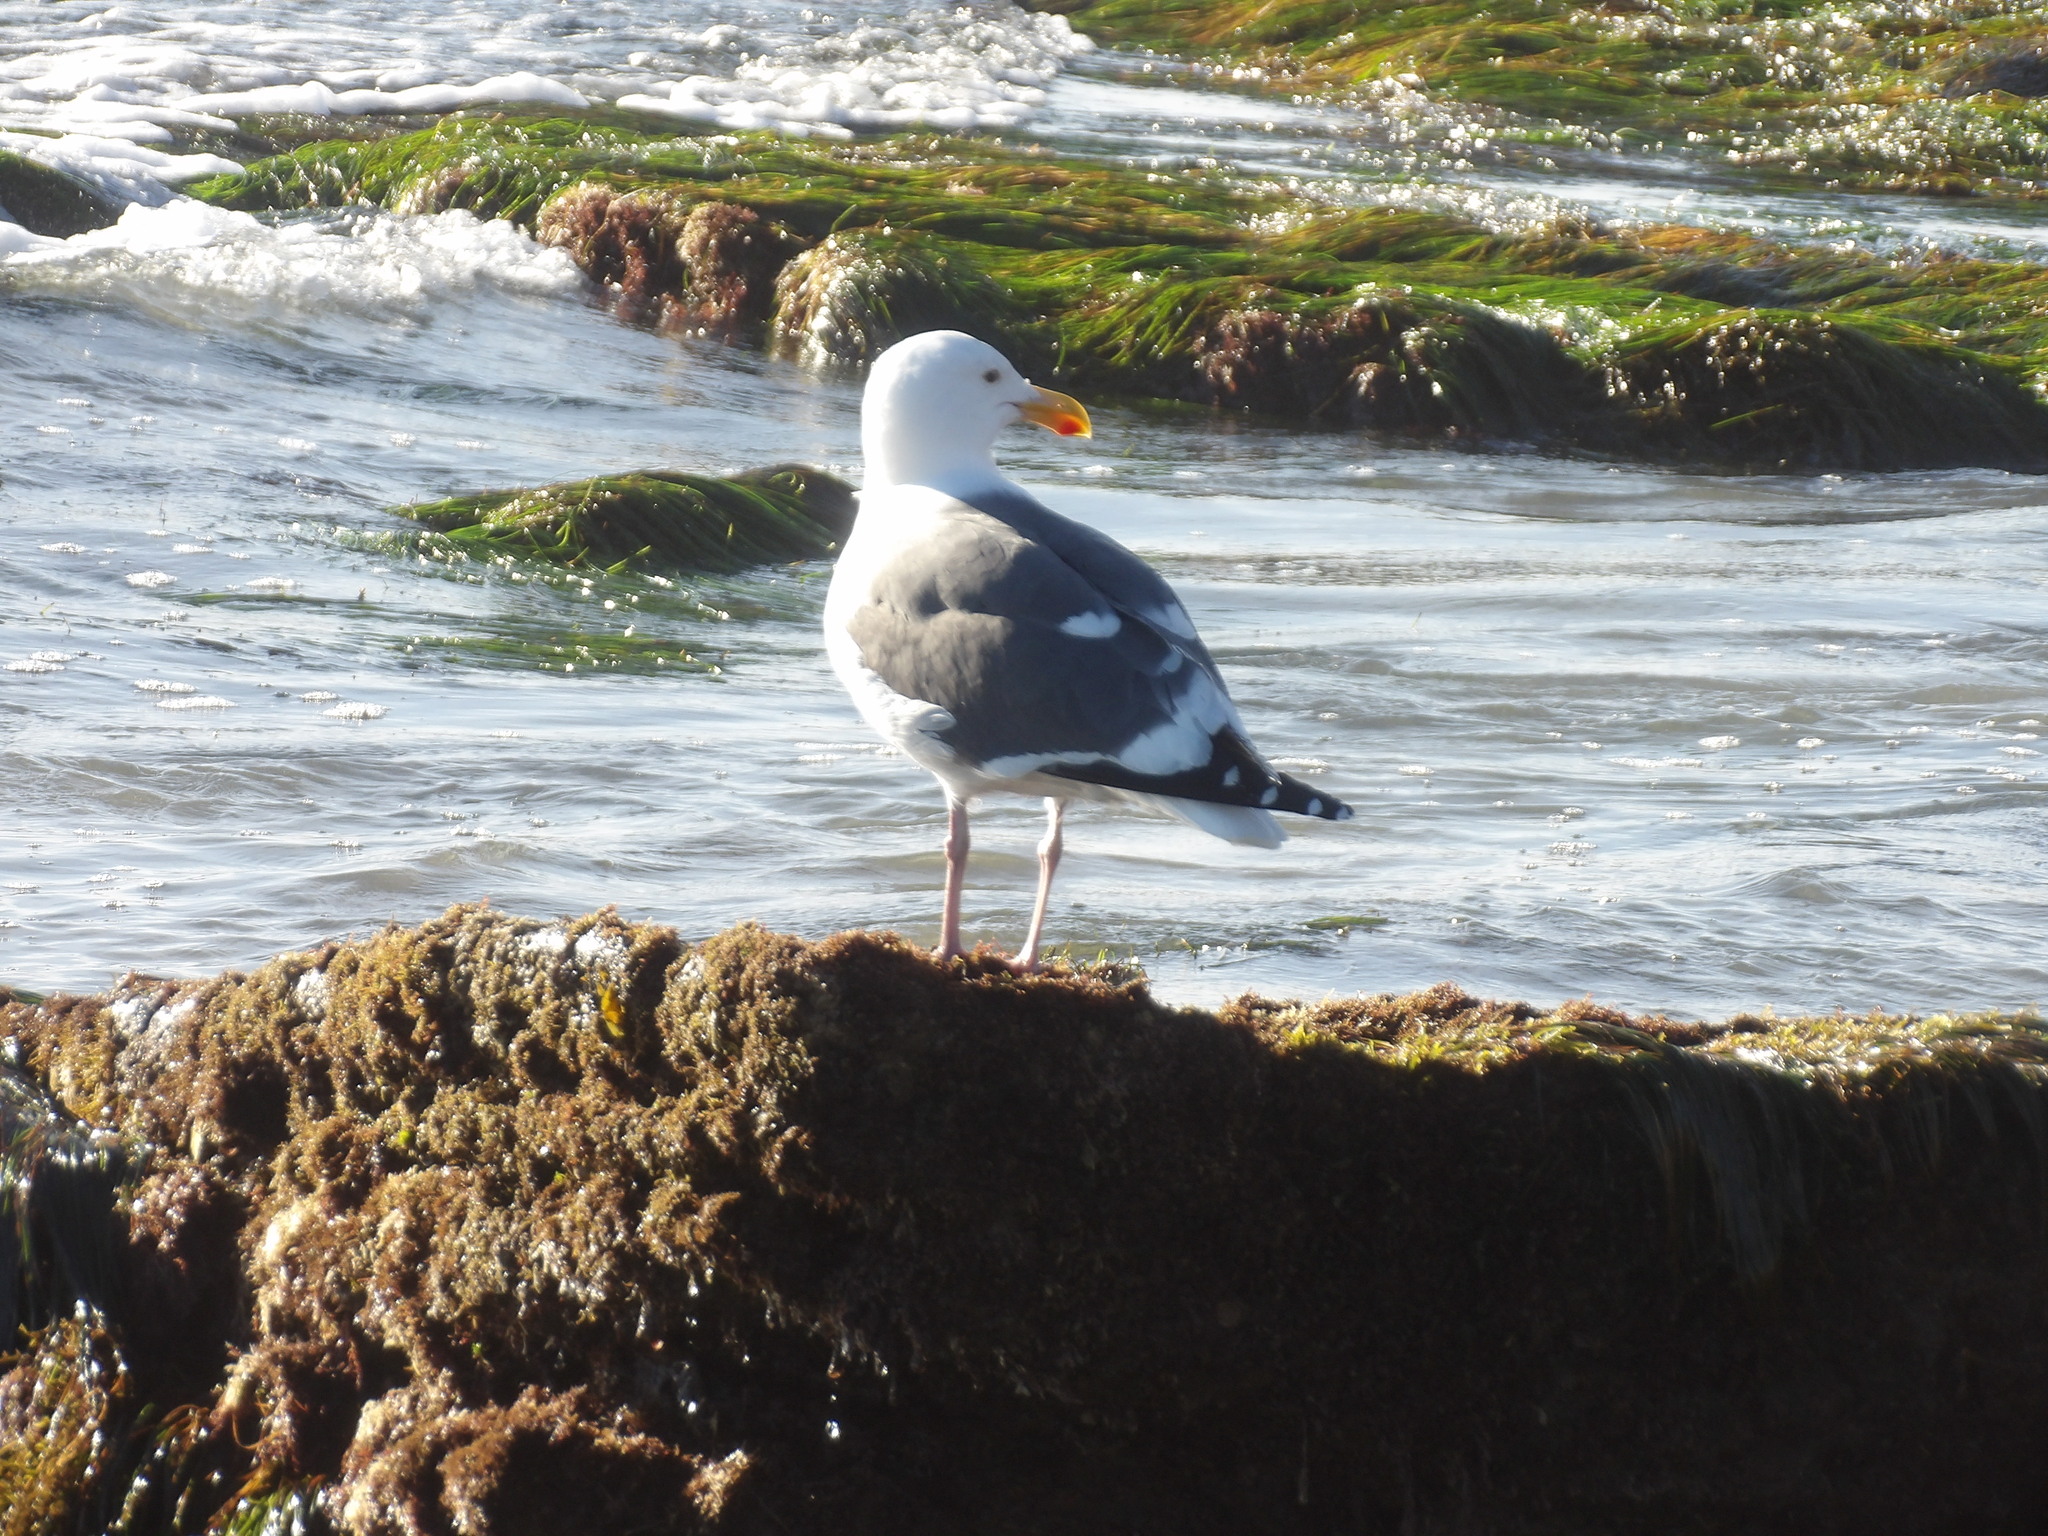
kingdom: Animalia
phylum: Chordata
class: Aves
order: Charadriiformes
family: Laridae
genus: Larus
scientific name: Larus occidentalis
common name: Western gull
